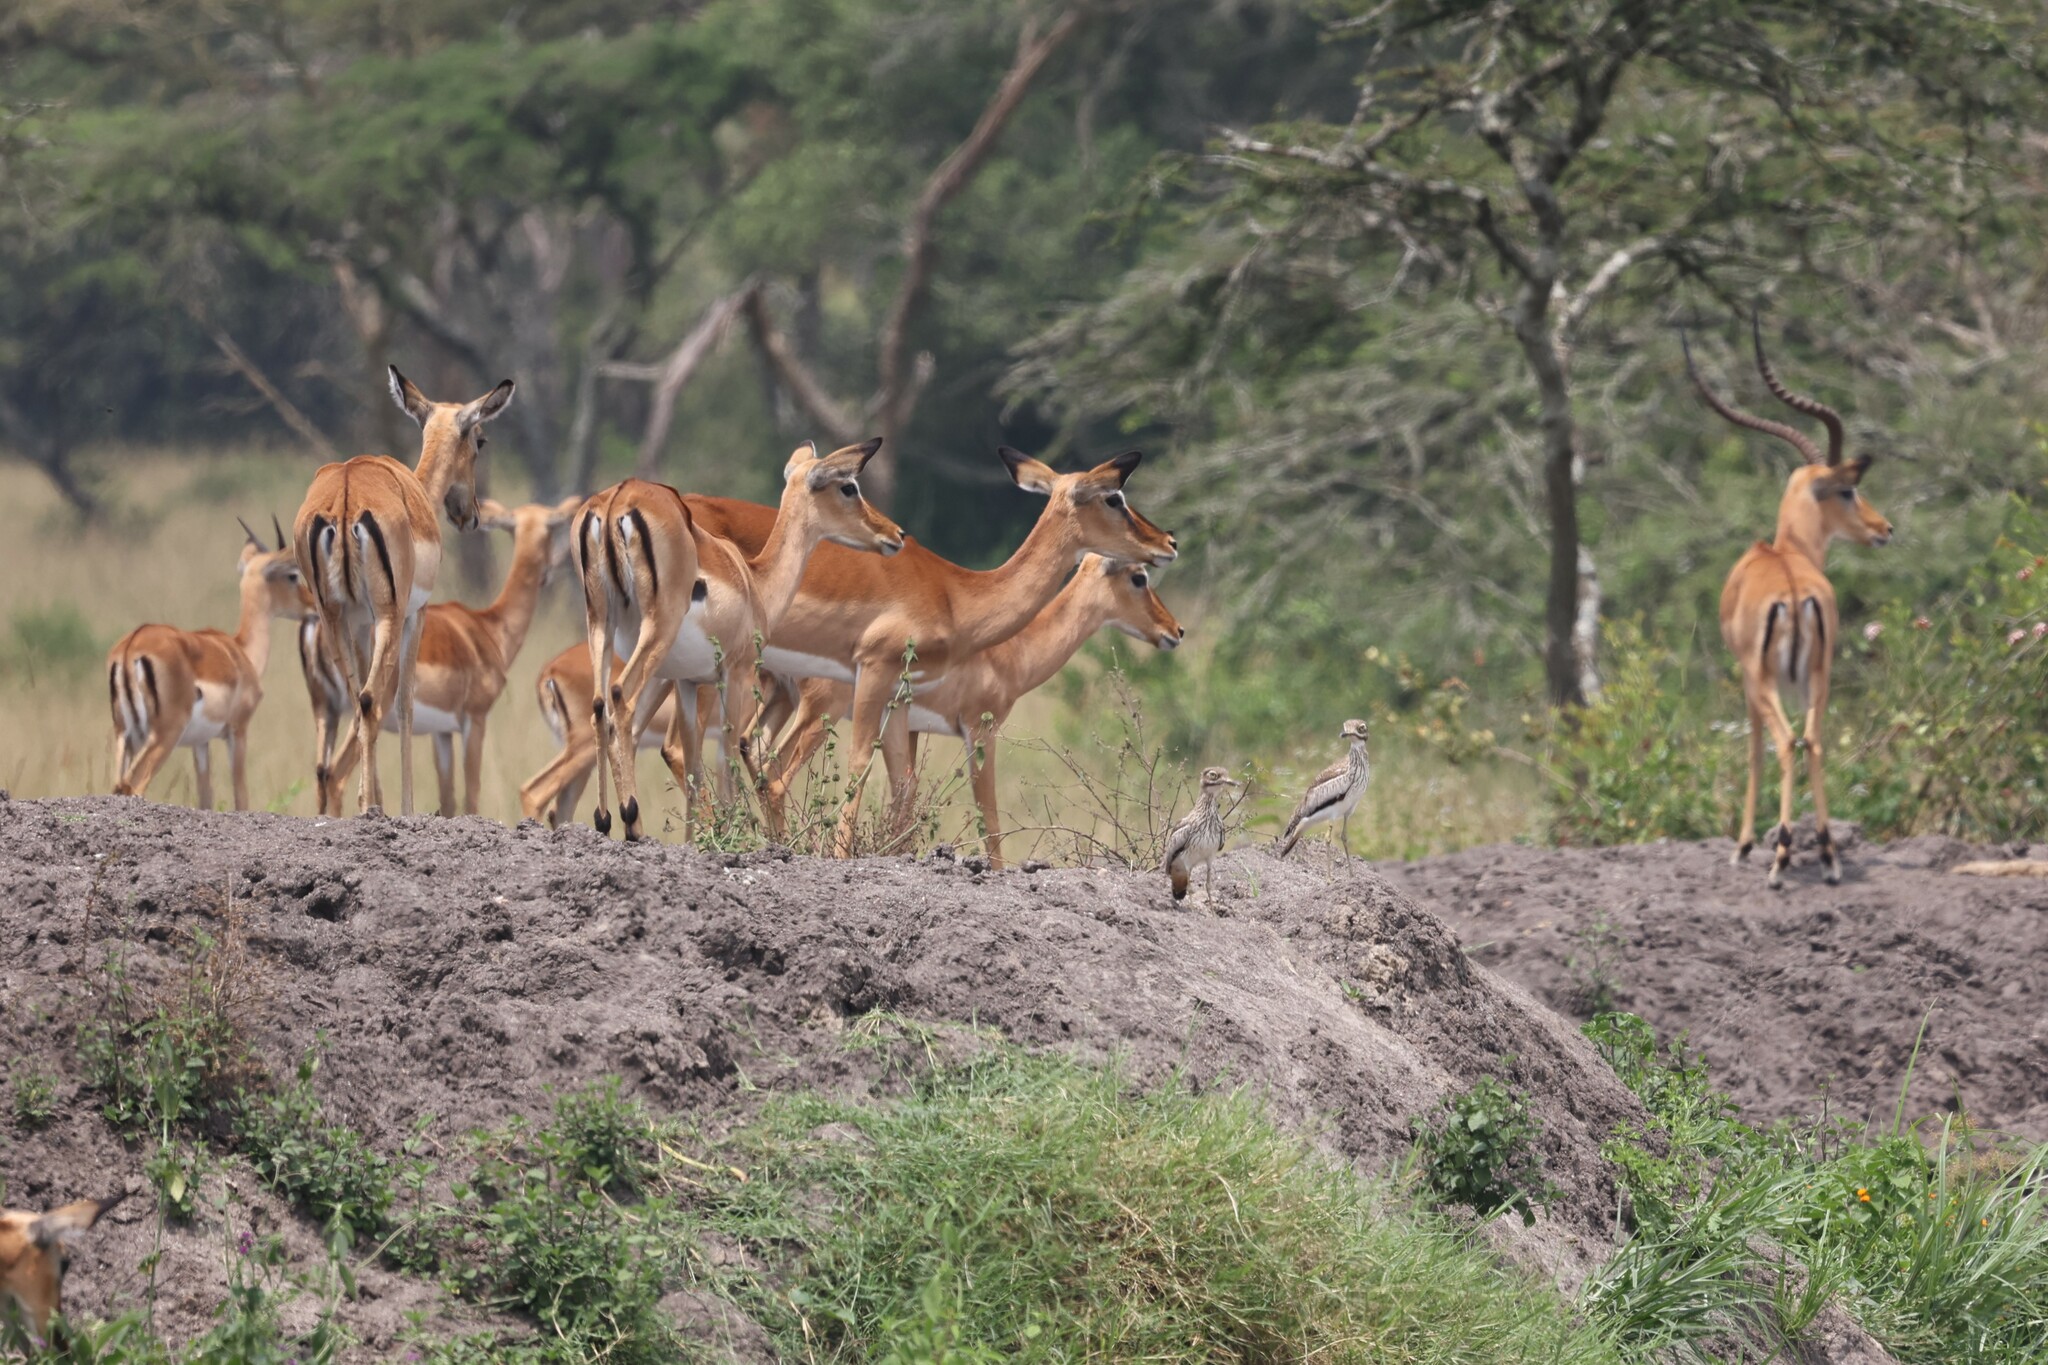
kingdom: Animalia
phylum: Chordata
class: Aves
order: Charadriiformes
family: Burhinidae
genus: Burhinus
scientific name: Burhinus vermiculatus
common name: Water thick-knee
